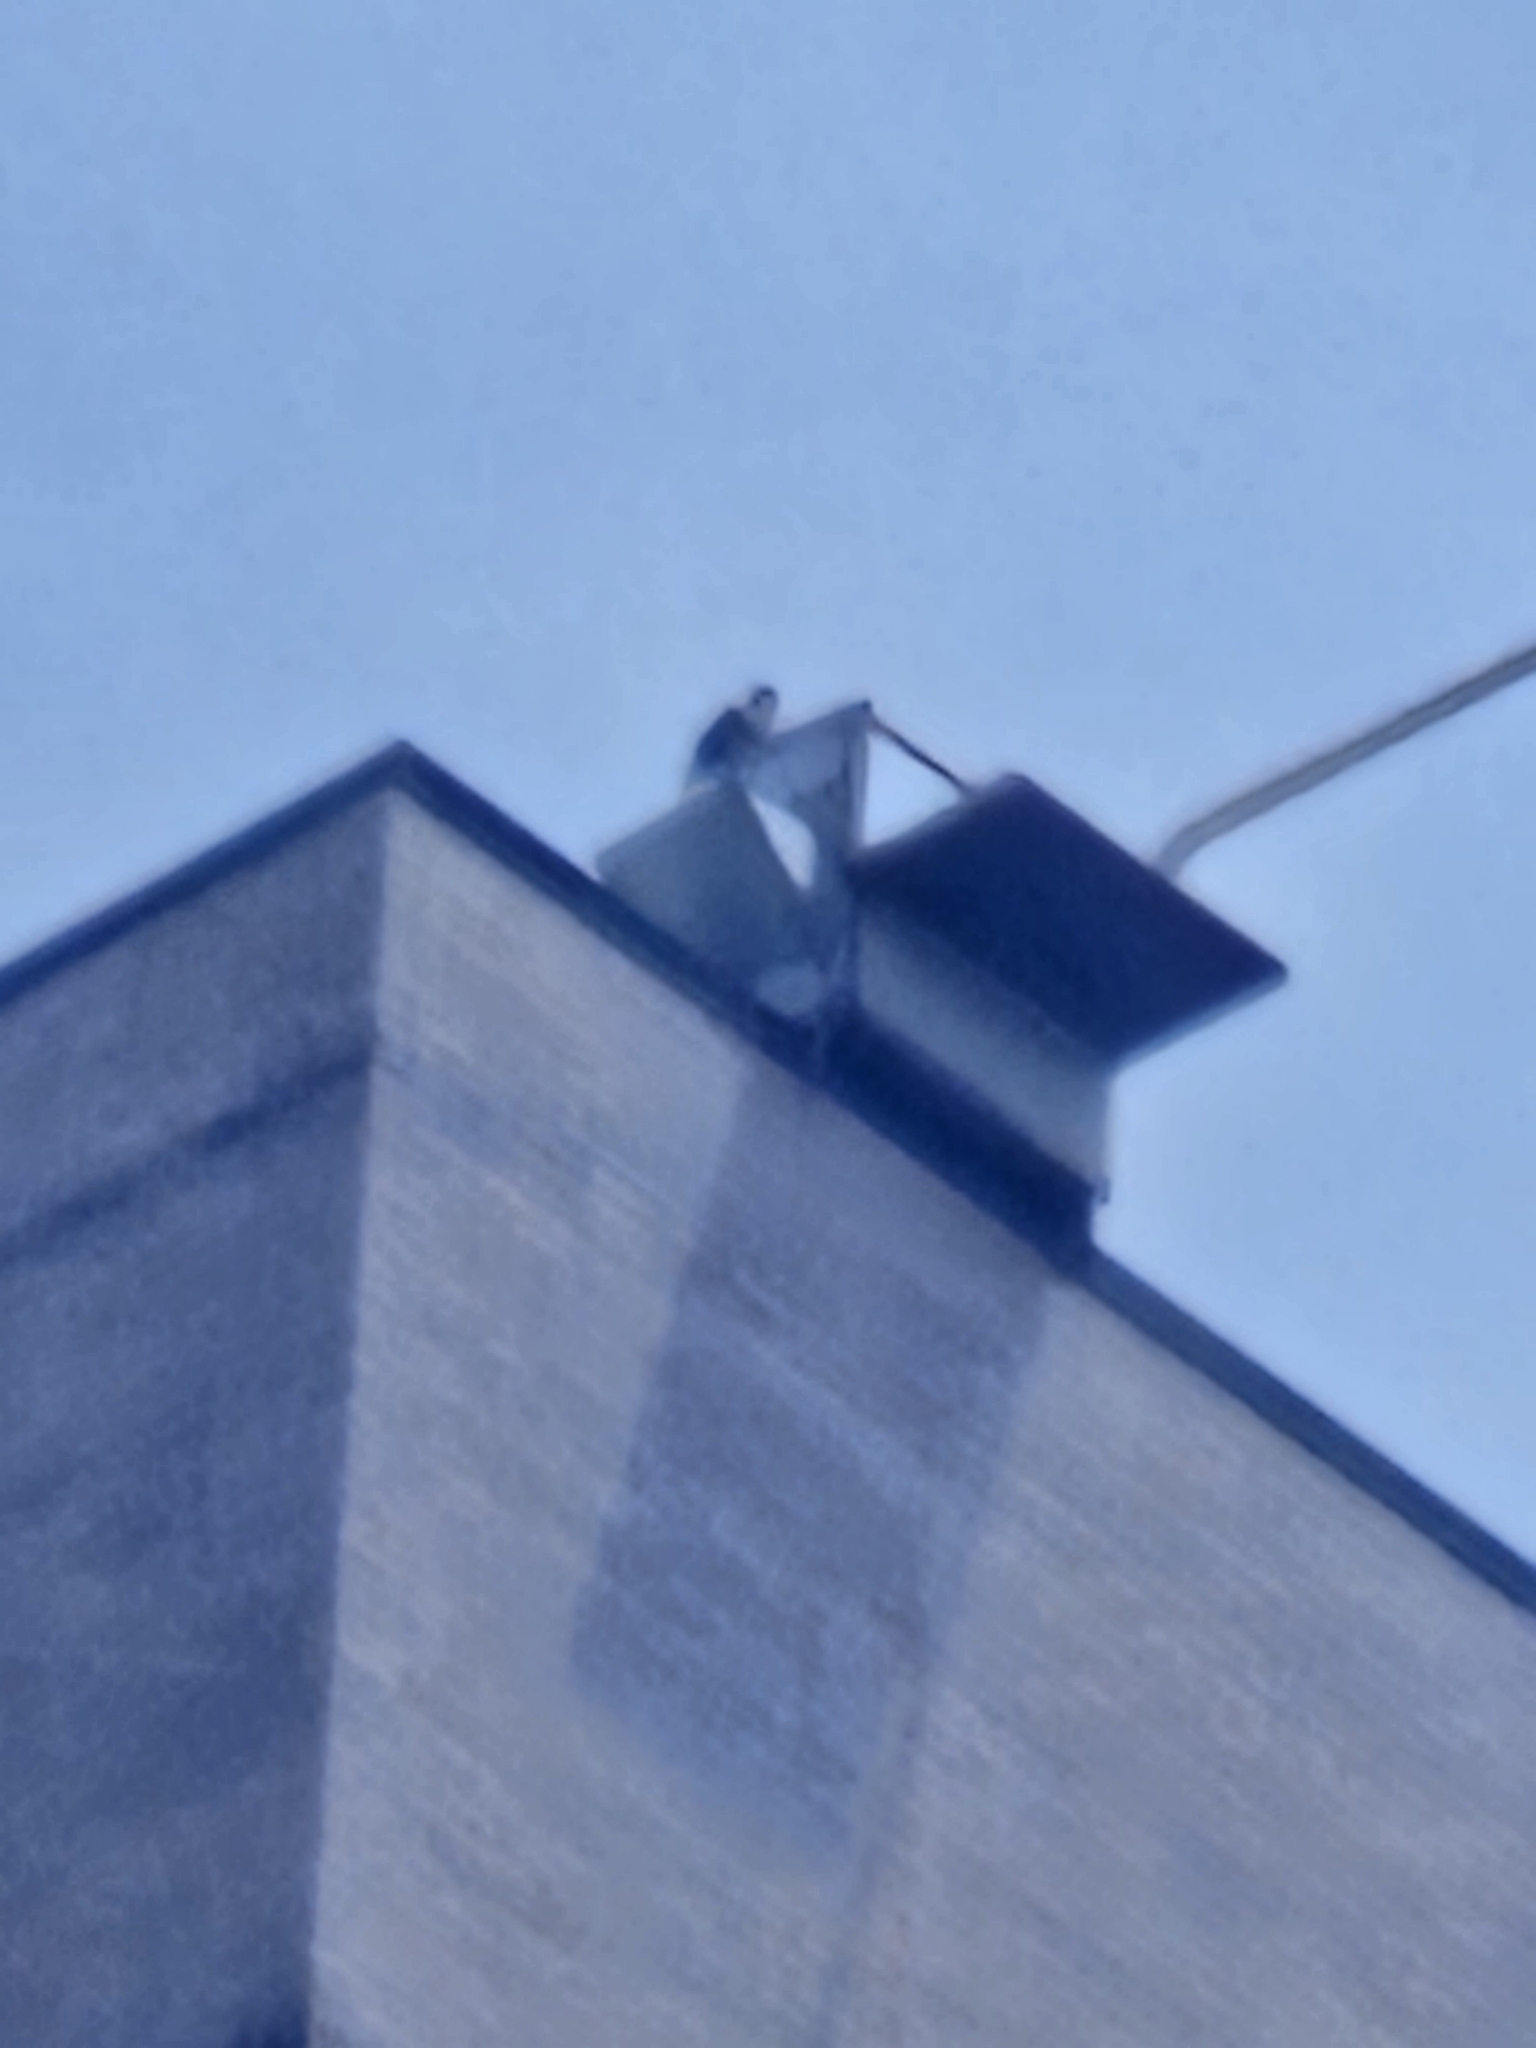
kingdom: Animalia
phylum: Chordata
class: Aves
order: Falconiformes
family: Falconidae
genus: Falco
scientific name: Falco peregrinus
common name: Peregrine falcon
